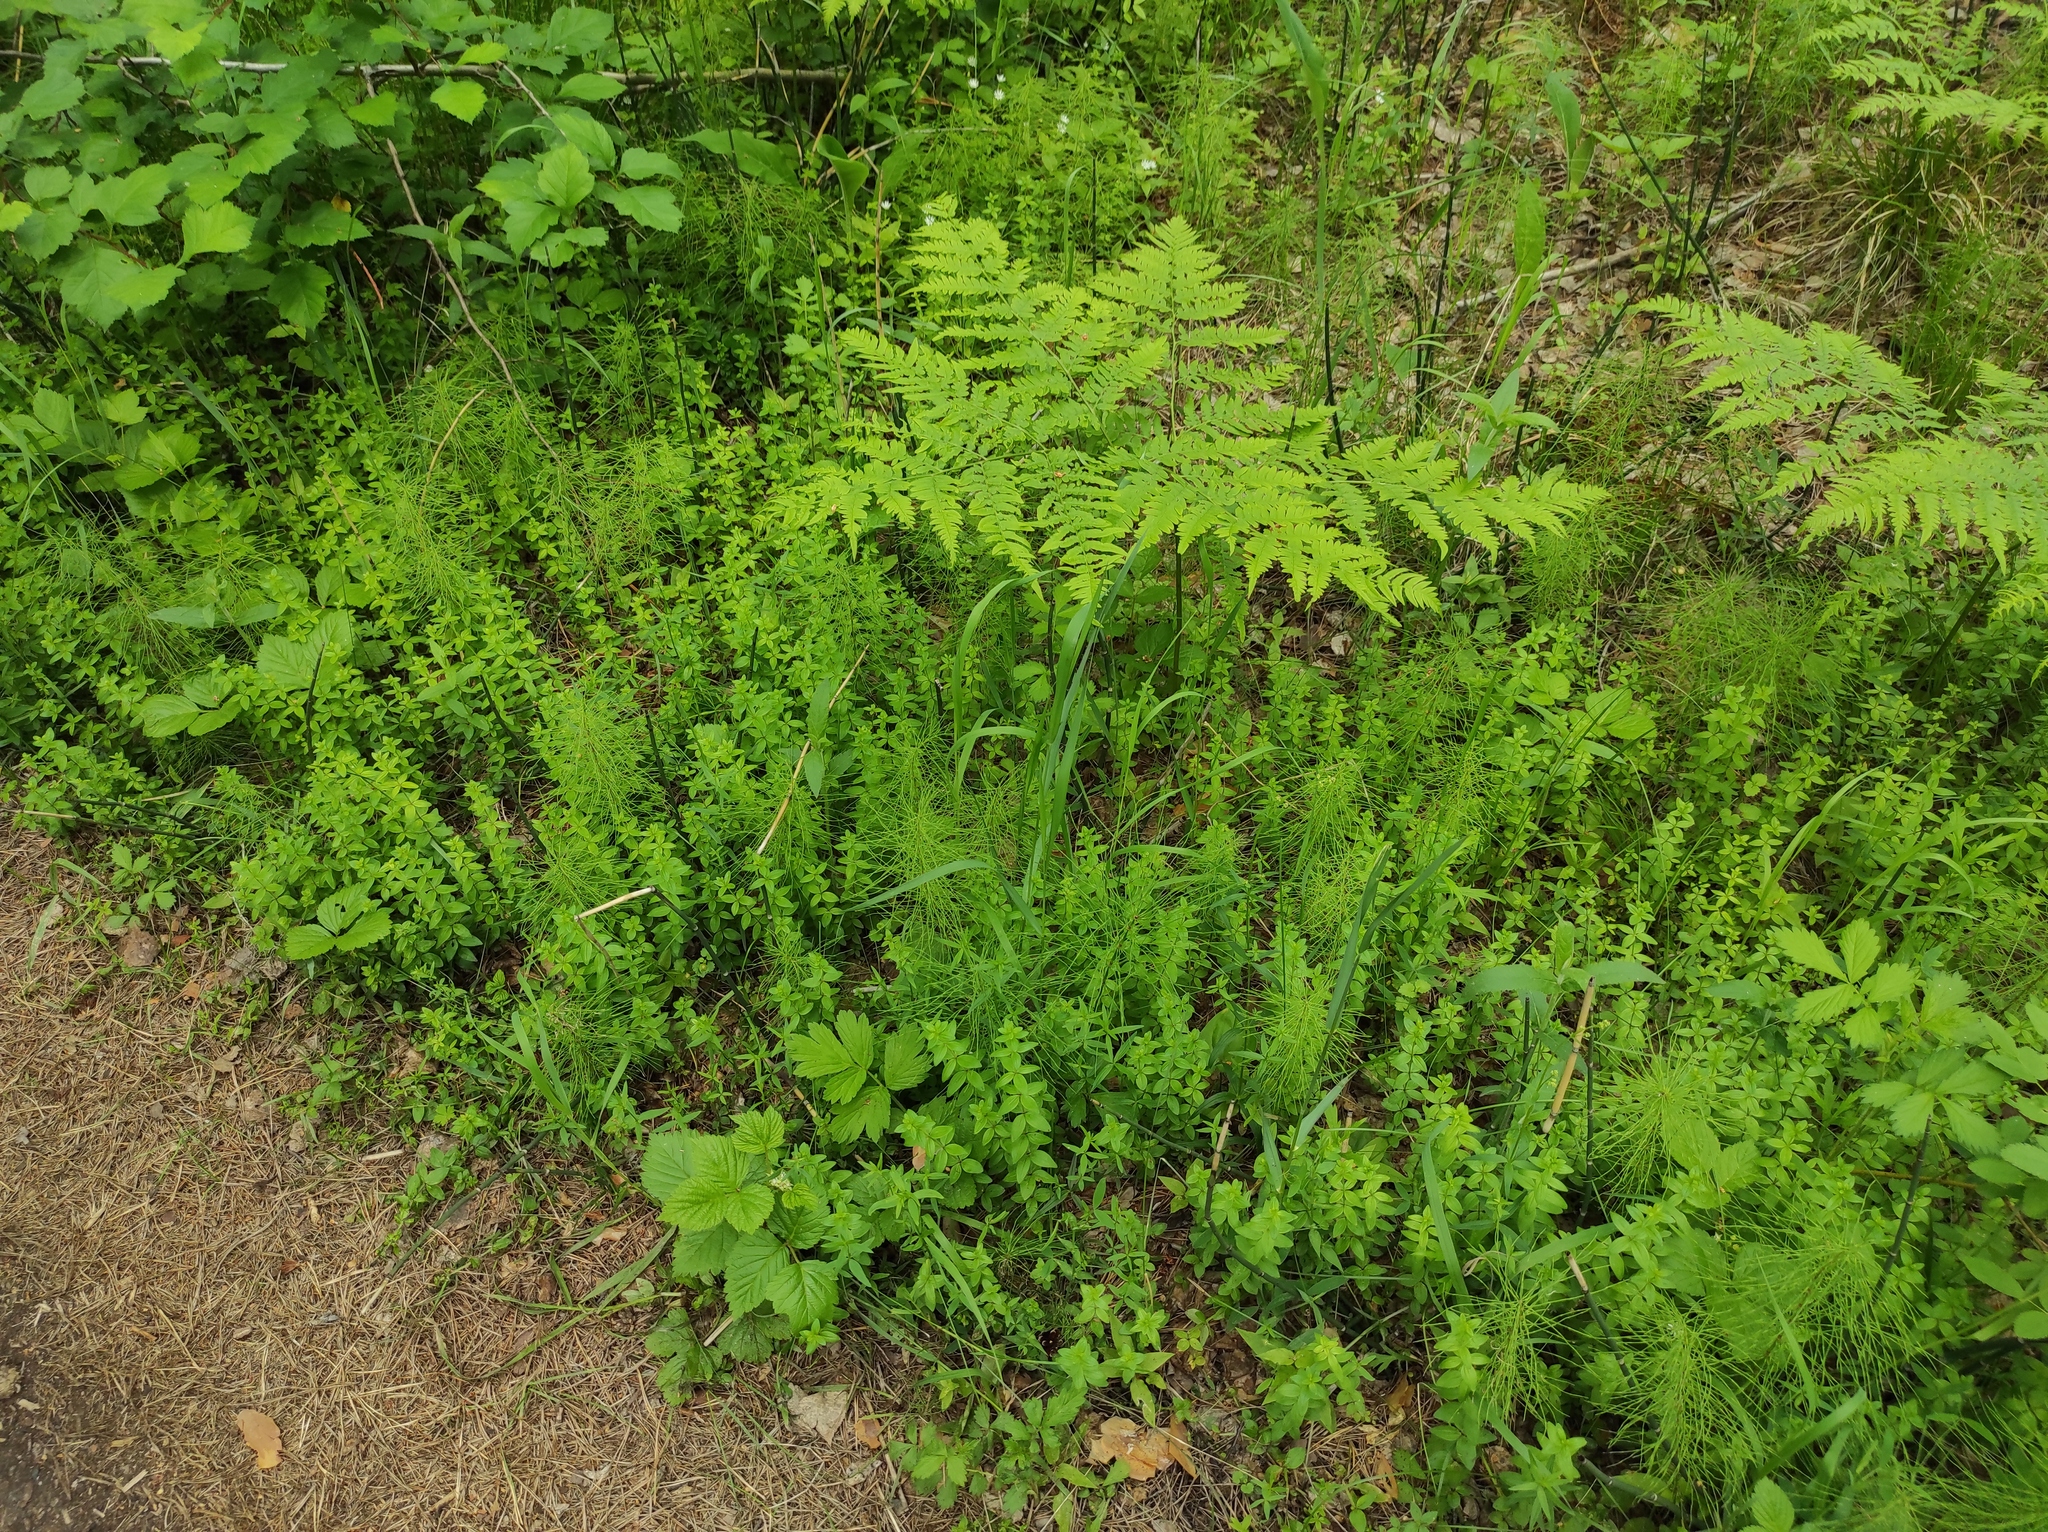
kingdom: Plantae
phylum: Tracheophyta
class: Polypodiopsida
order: Polypodiales
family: Dennstaedtiaceae
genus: Pteridium
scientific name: Pteridium aquilinum
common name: Bracken
